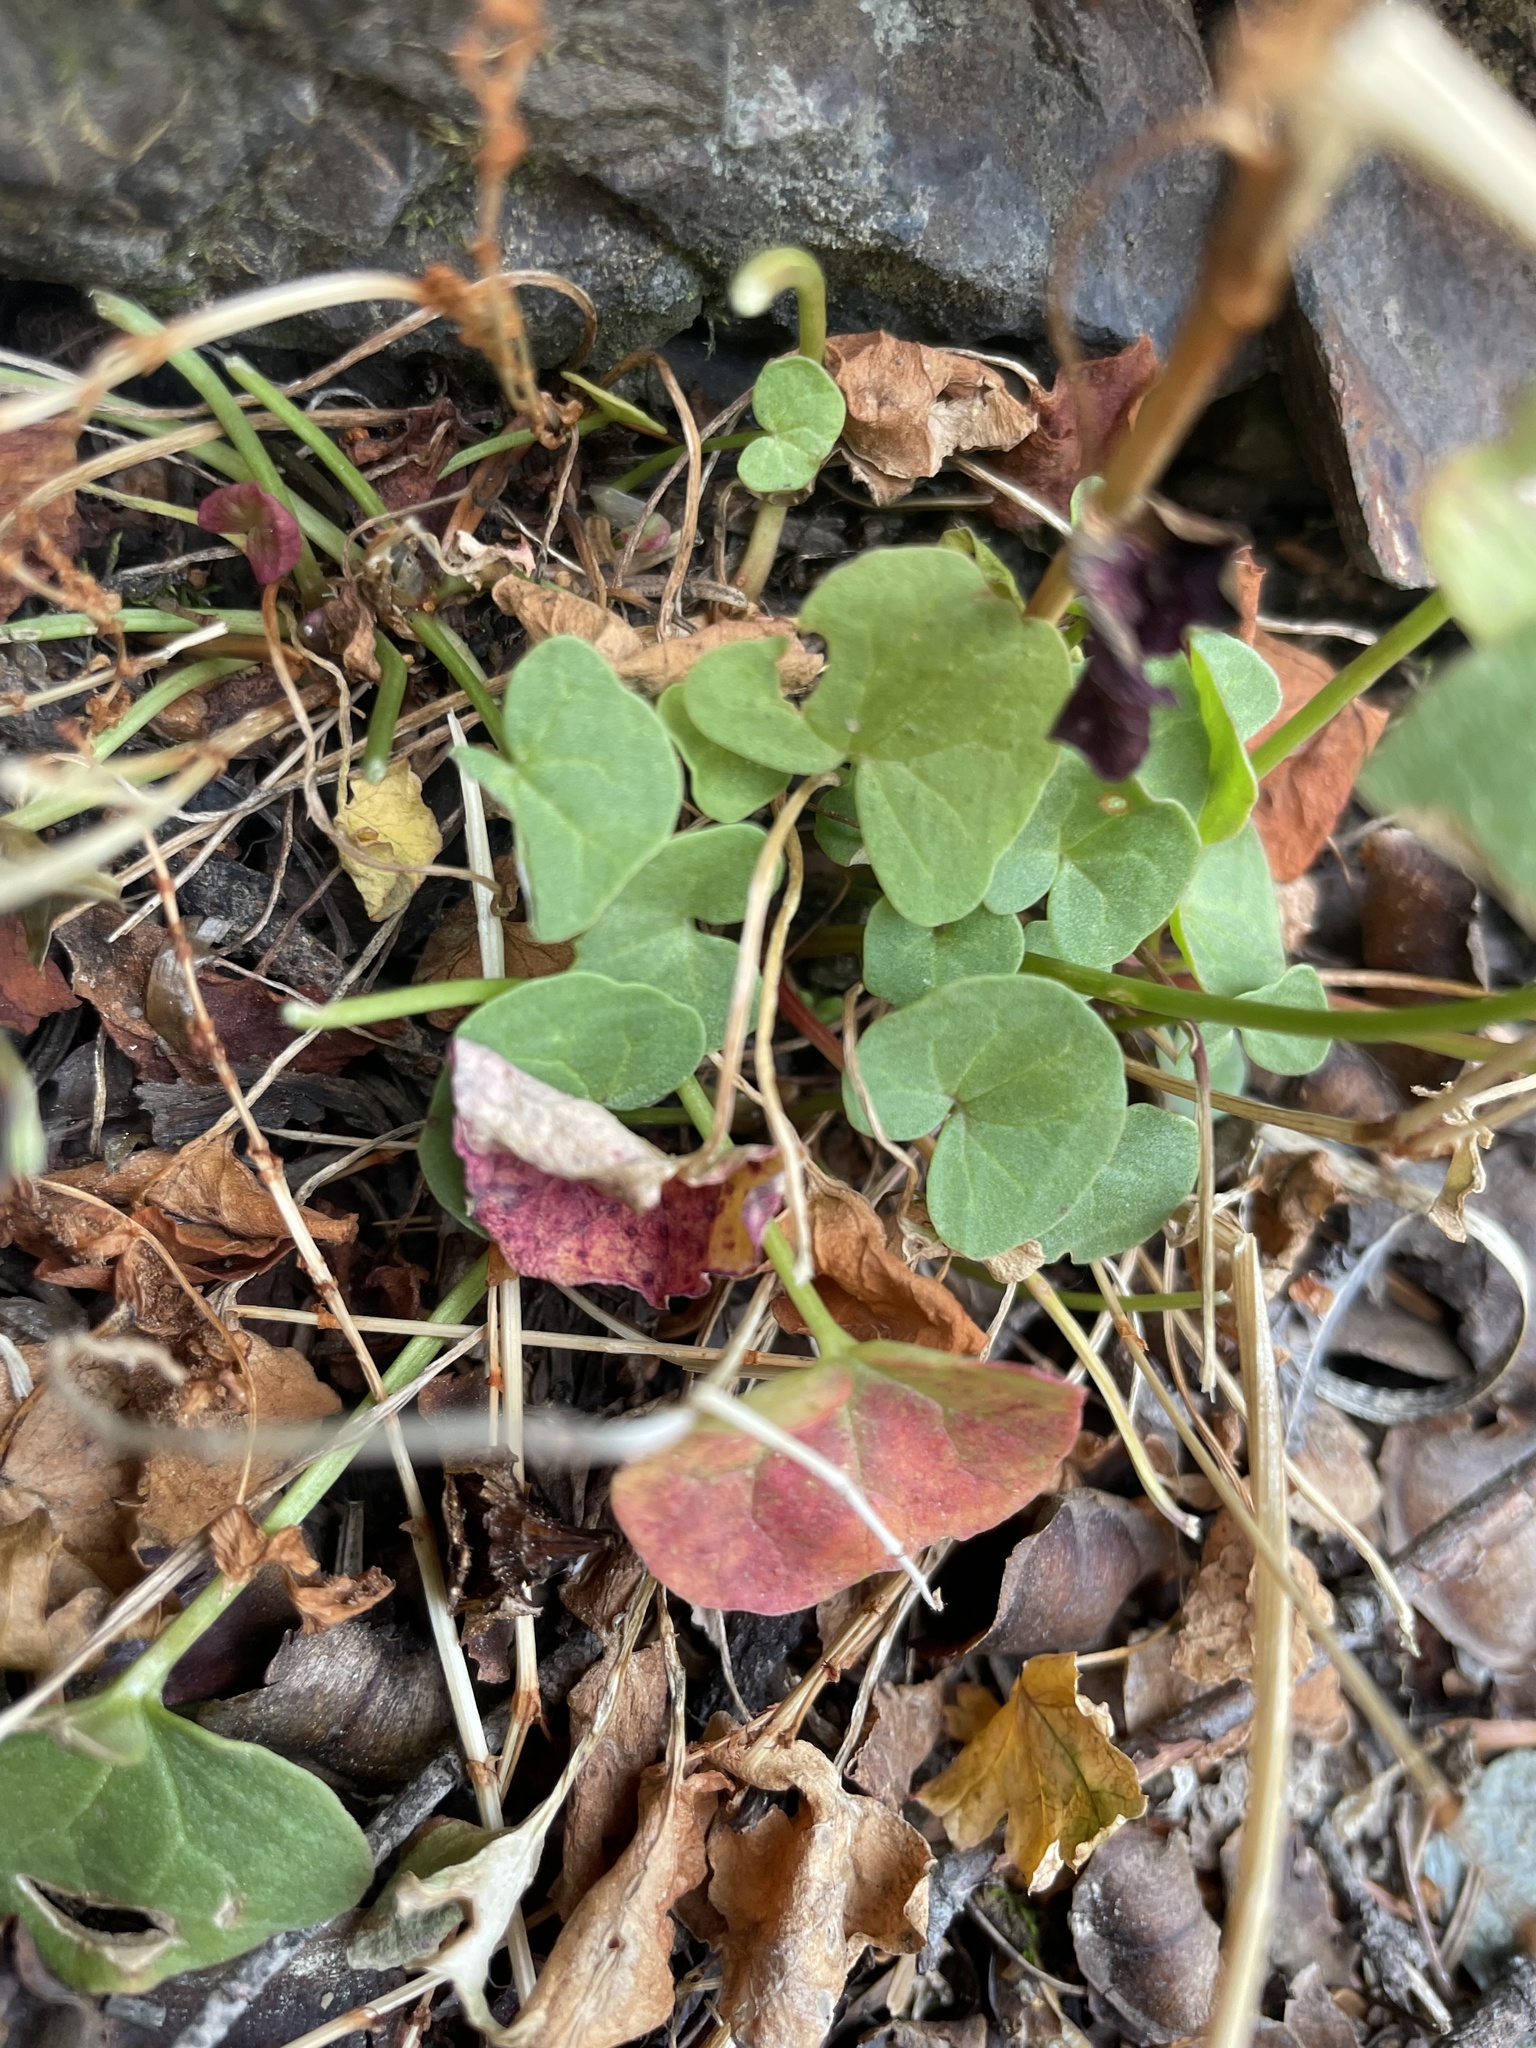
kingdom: Plantae
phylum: Tracheophyta
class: Magnoliopsida
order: Caryophyllales
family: Polygonaceae
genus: Oxyria
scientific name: Oxyria digyna
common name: Alpine mountain-sorrel
